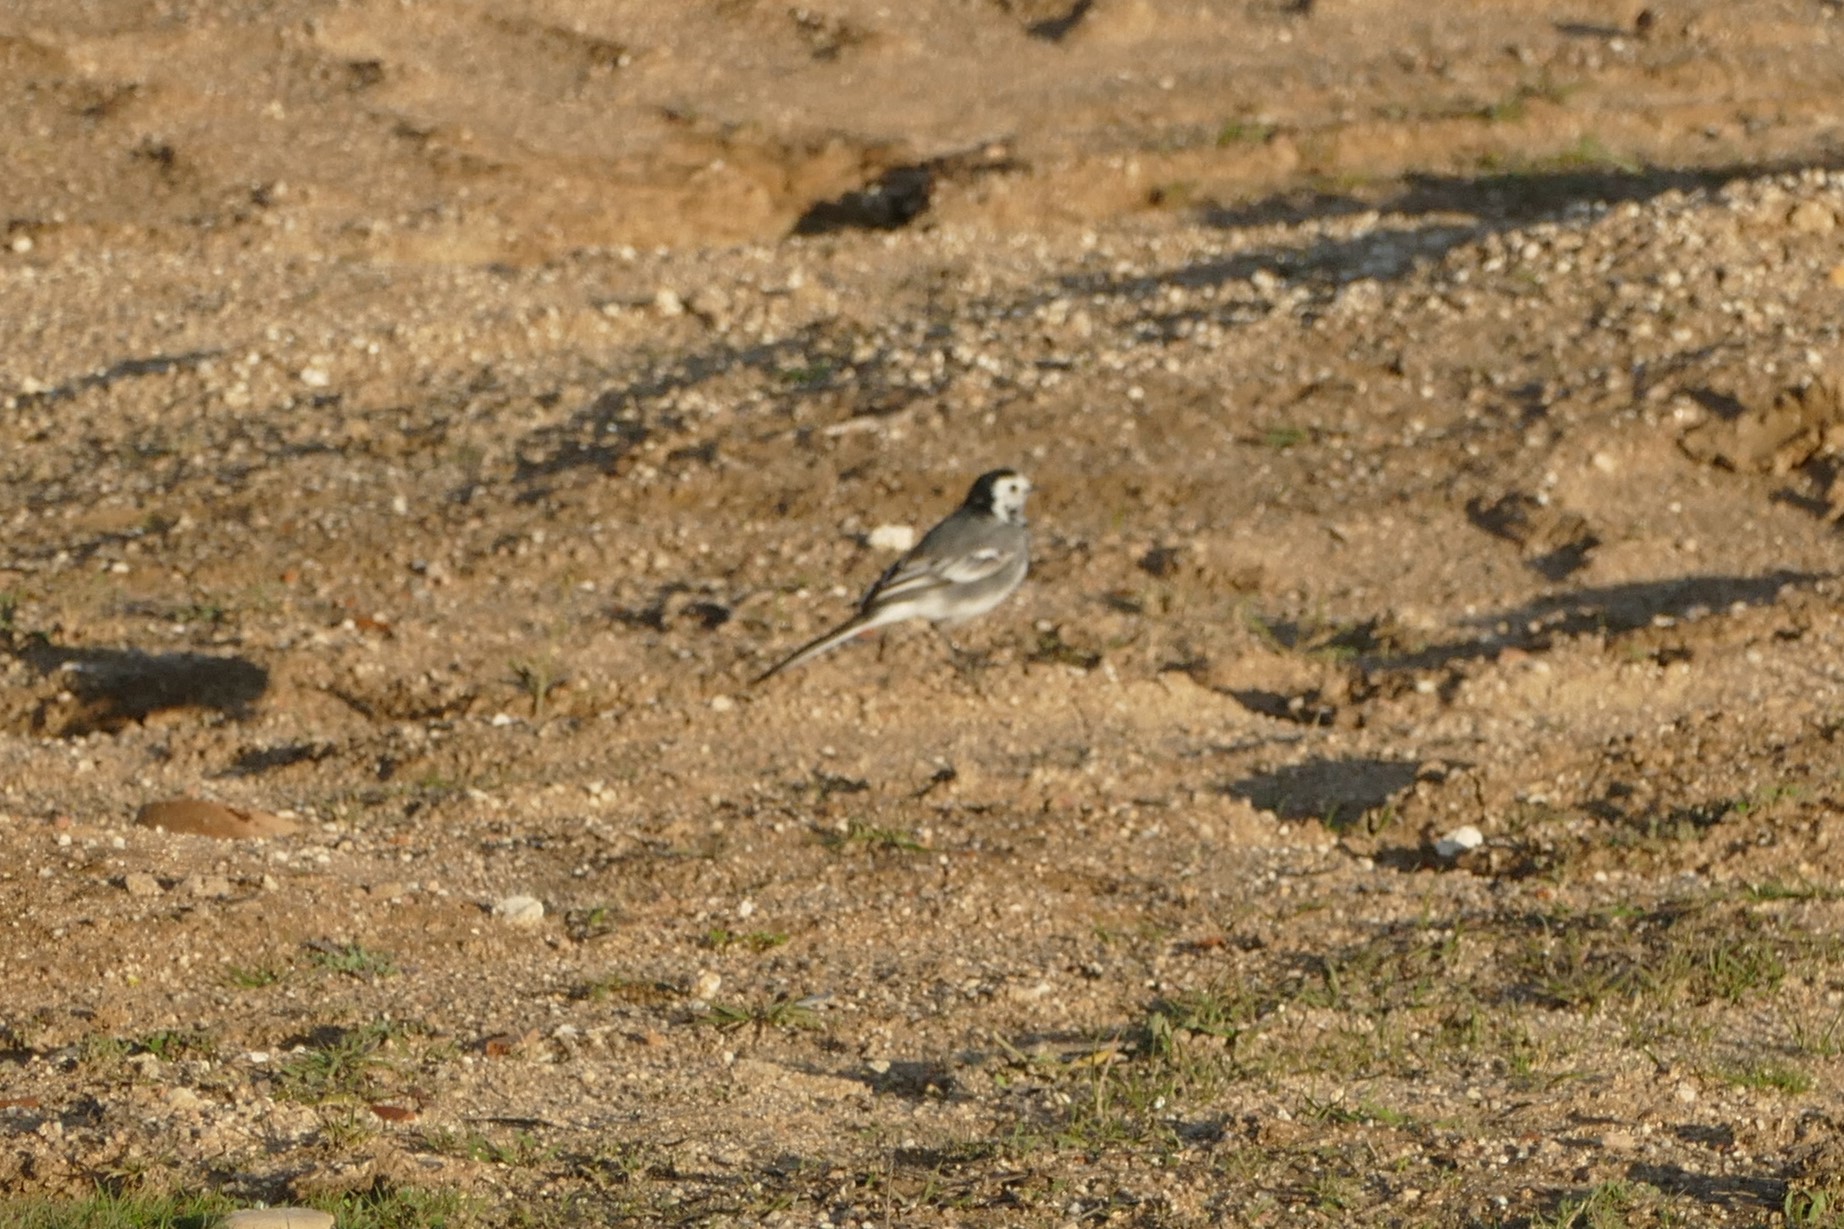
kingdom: Animalia
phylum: Chordata
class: Aves
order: Passeriformes
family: Motacillidae
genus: Motacilla
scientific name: Motacilla alba
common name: White wagtail
